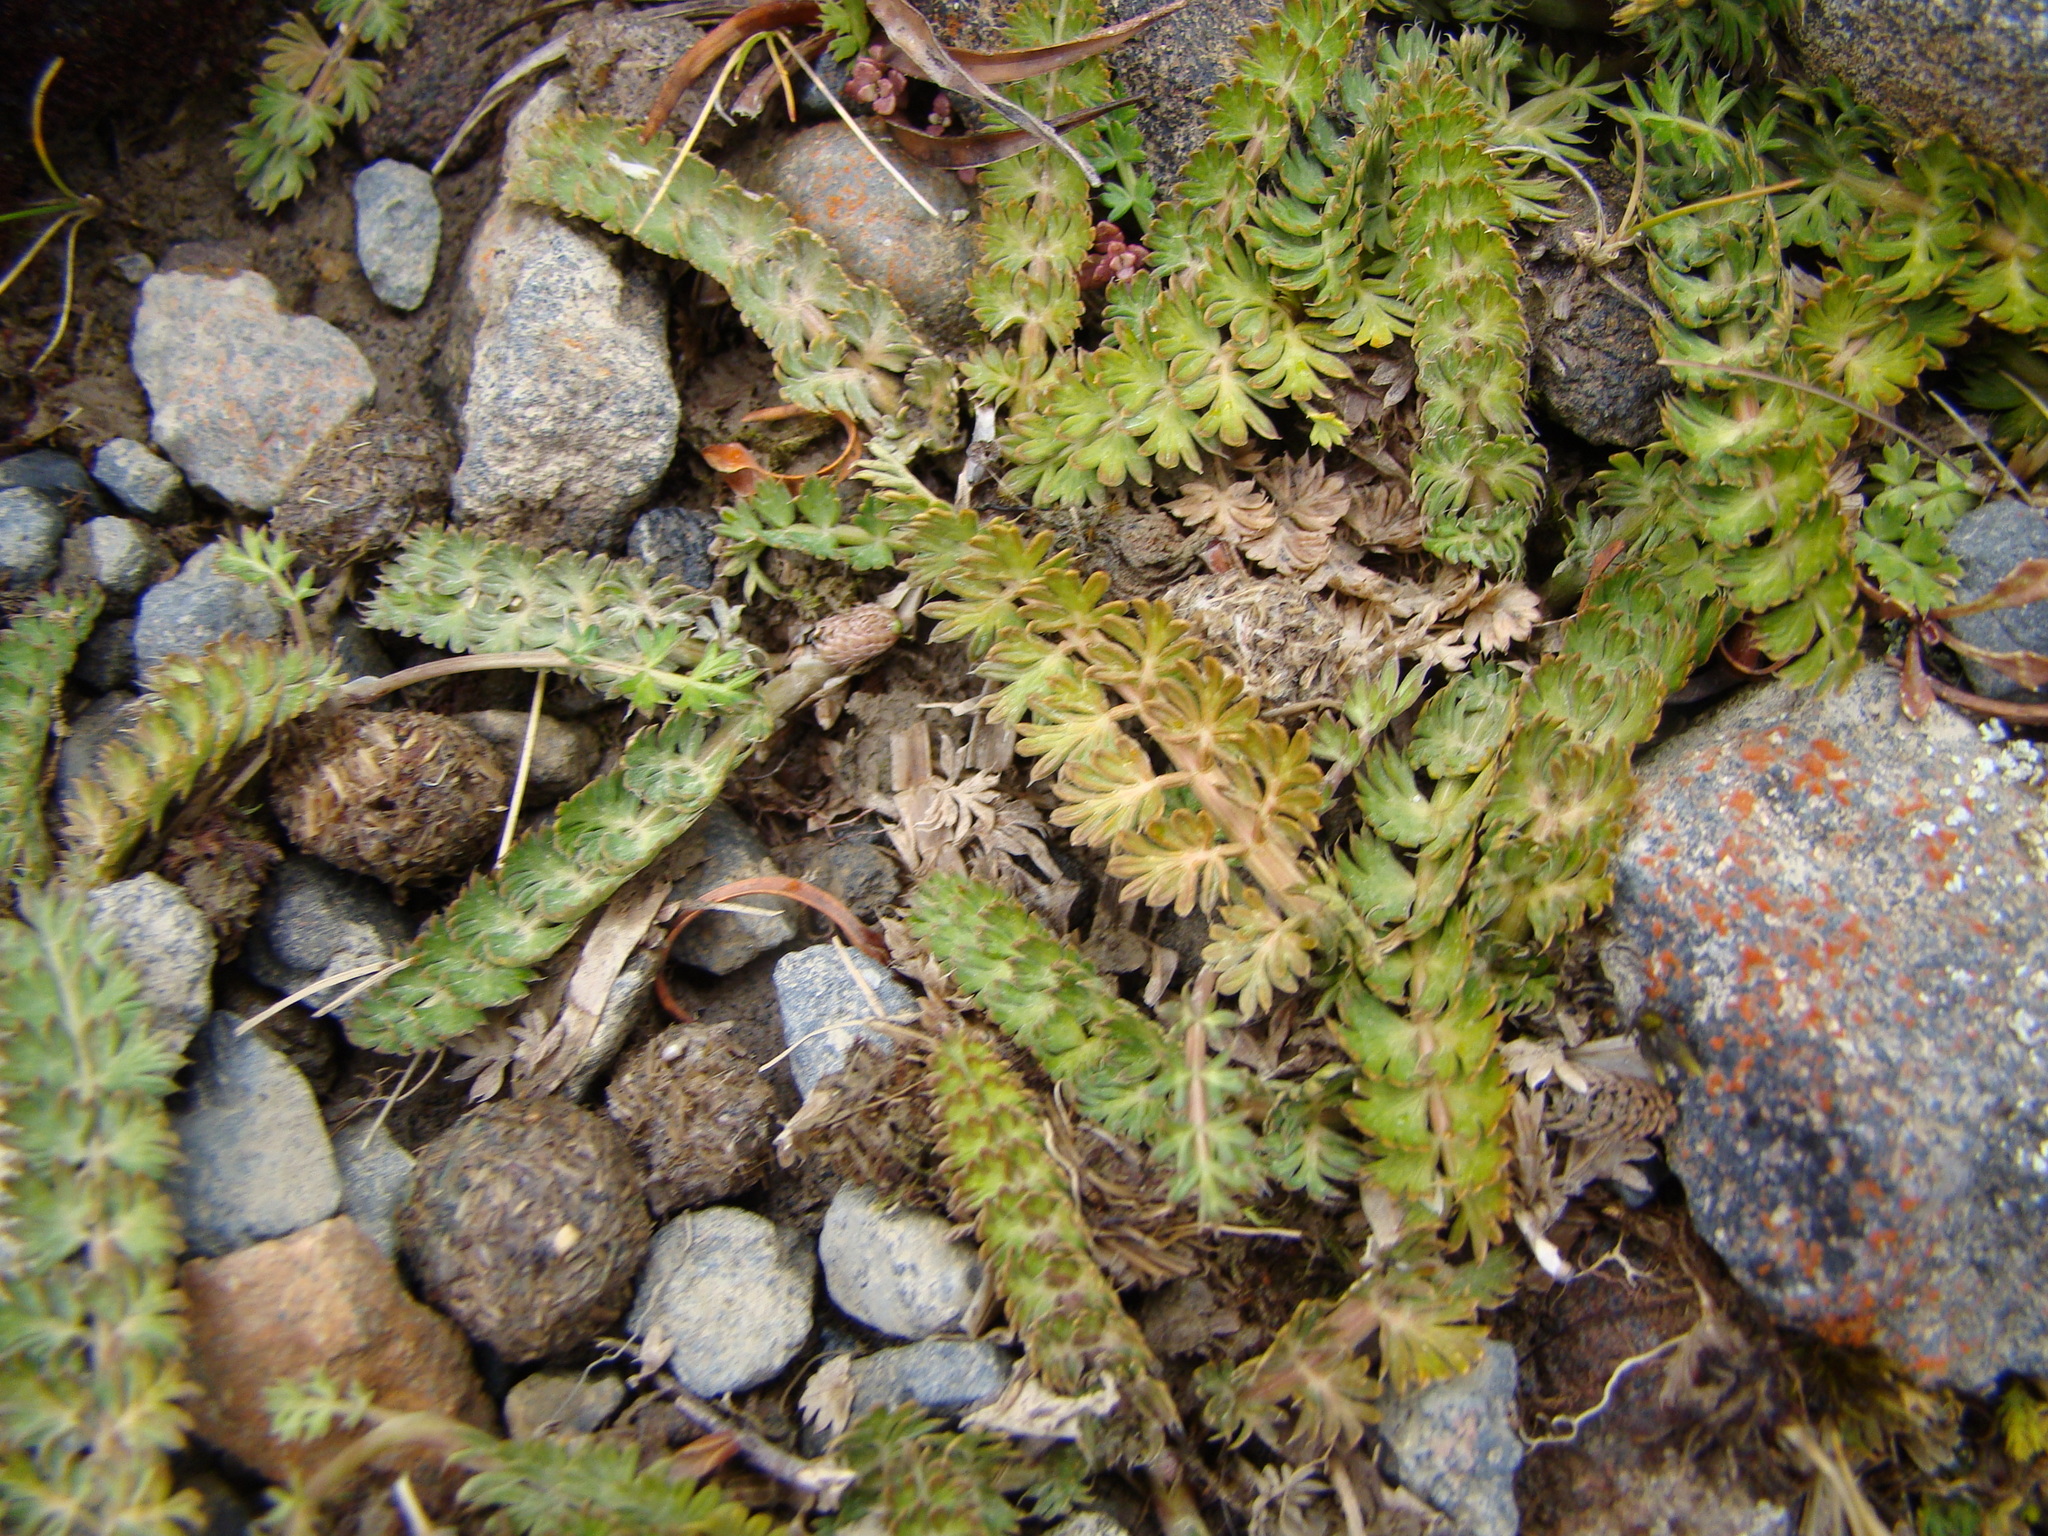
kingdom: Plantae
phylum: Tracheophyta
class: Magnoliopsida
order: Apiales
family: Apiaceae
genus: Anisotome
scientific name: Anisotome aromatica
